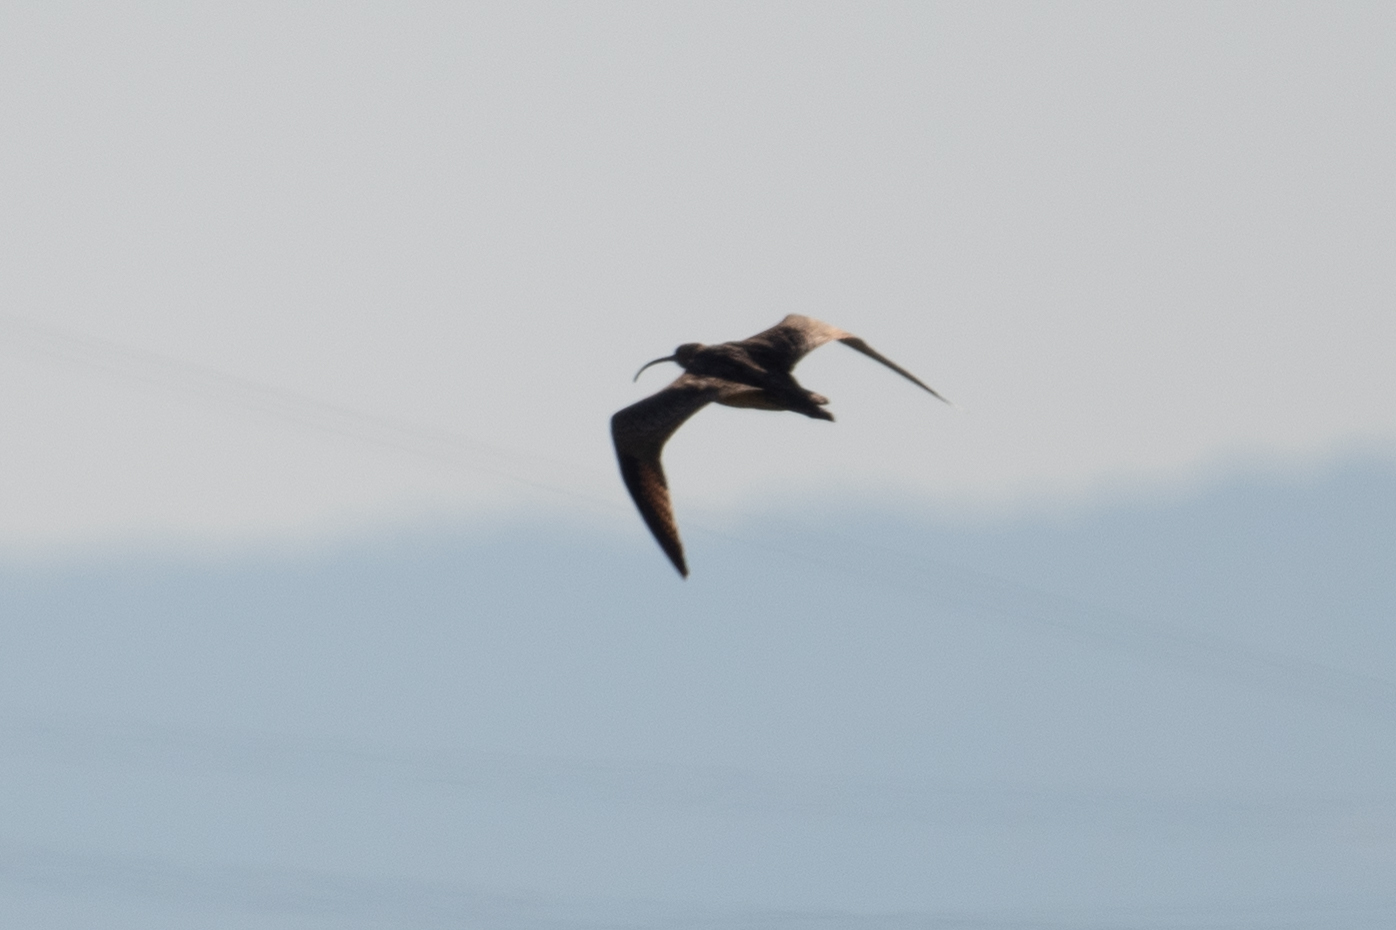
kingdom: Animalia
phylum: Chordata
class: Aves
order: Charadriiformes
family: Scolopacidae
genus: Numenius
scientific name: Numenius americanus
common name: Long-billed curlew
